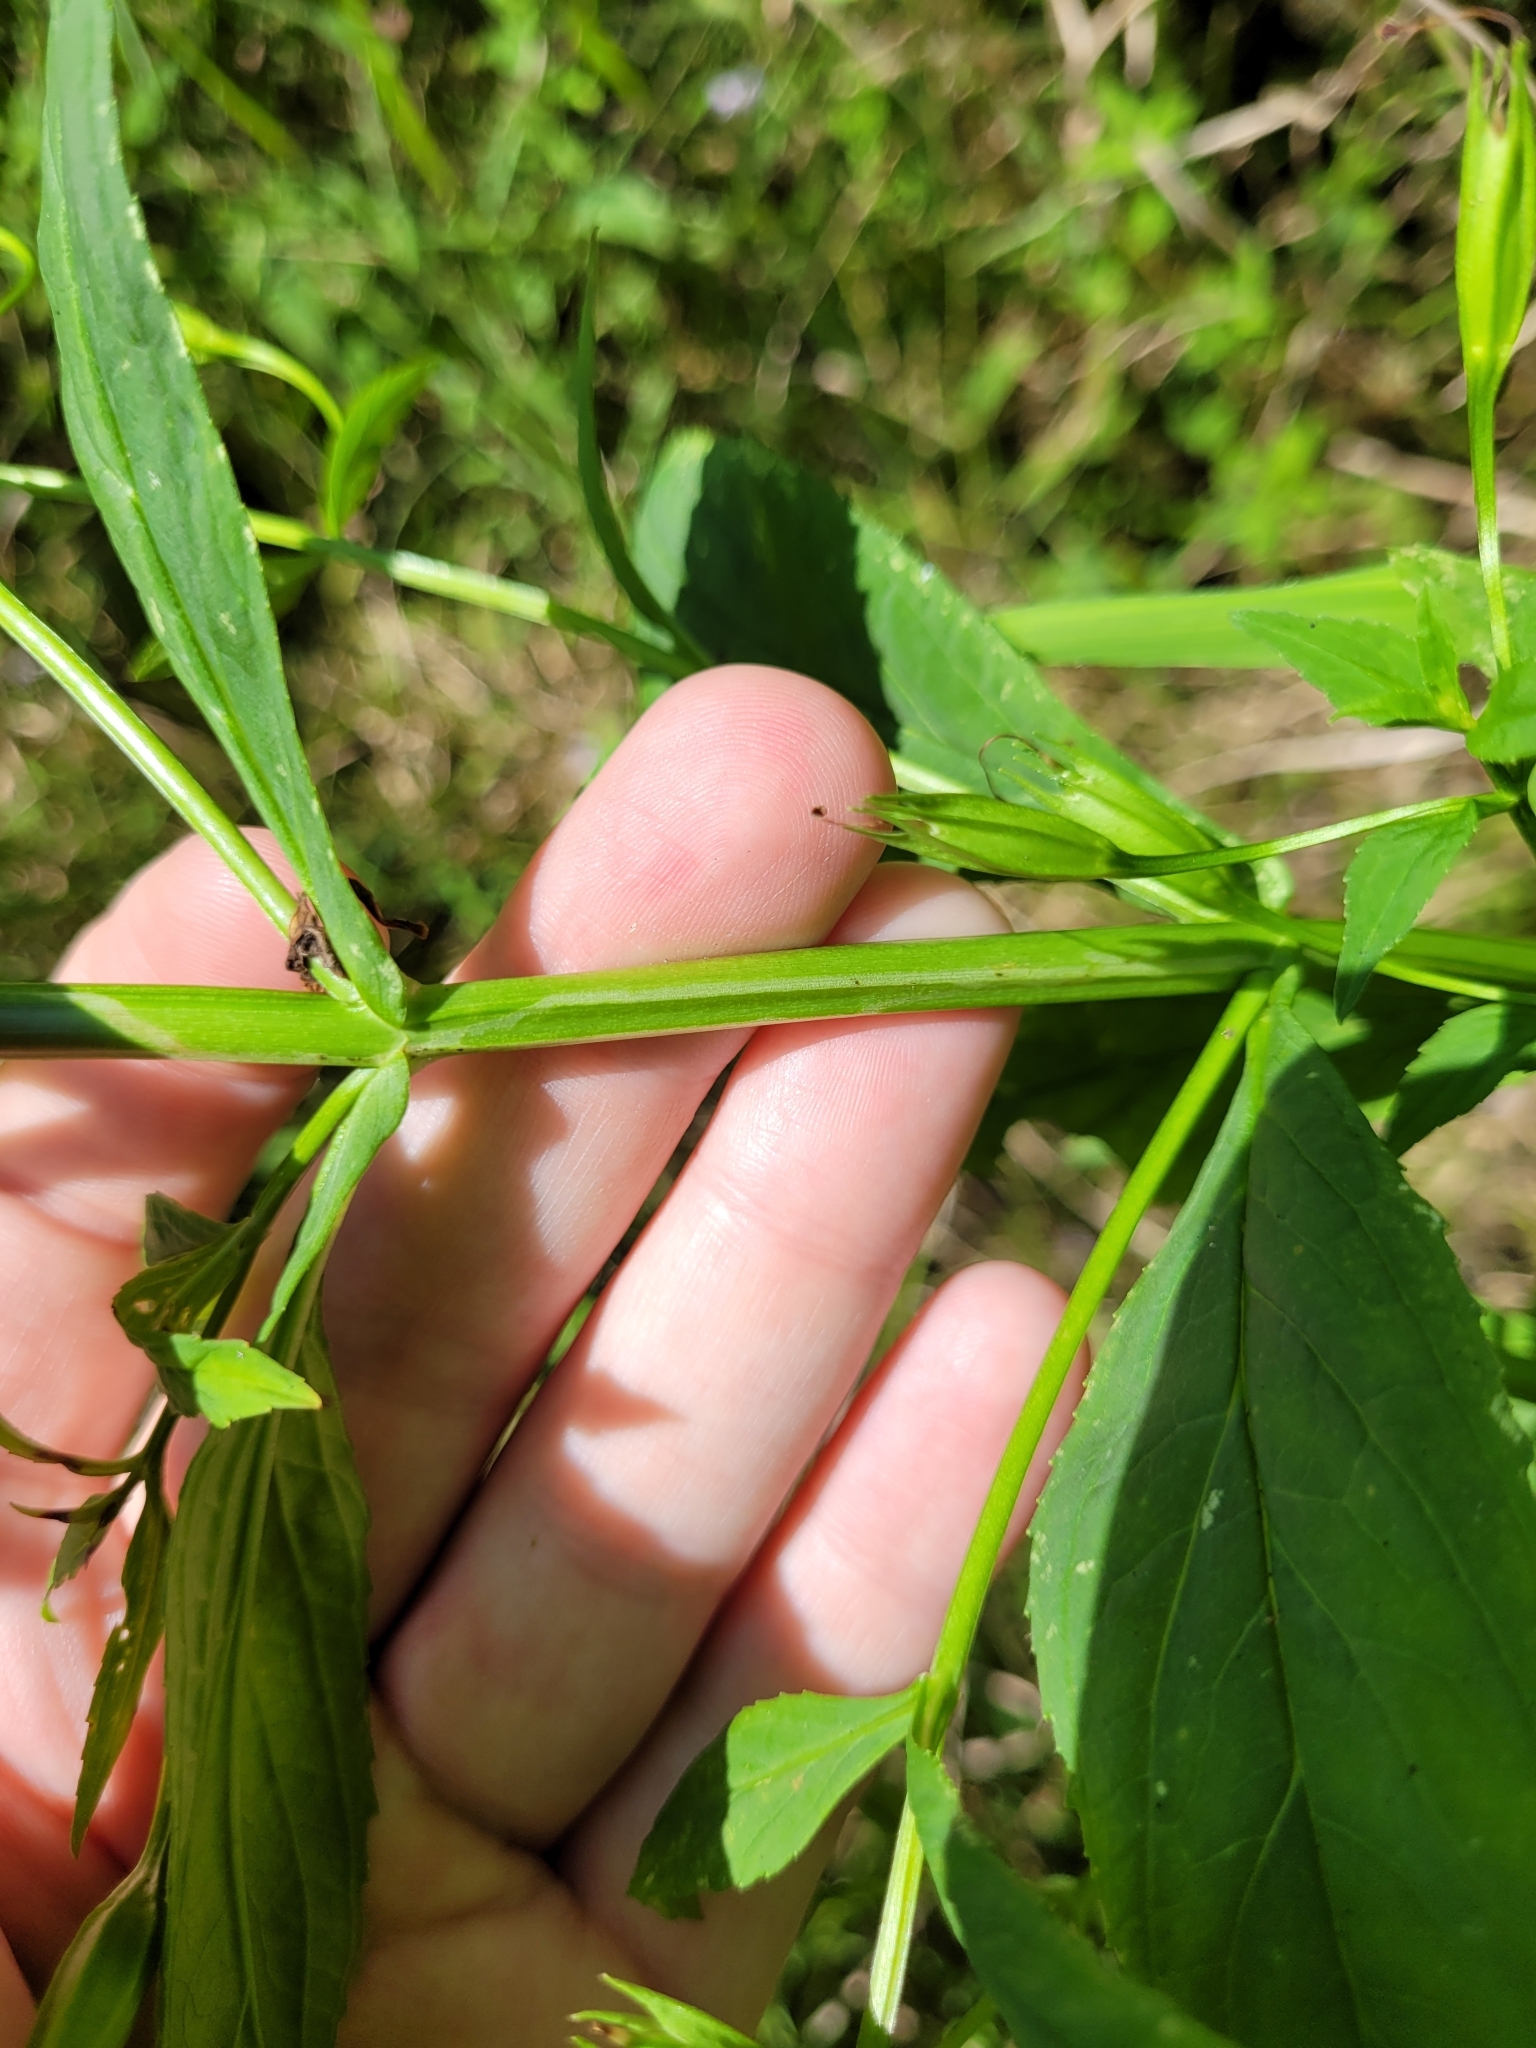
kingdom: Plantae
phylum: Tracheophyta
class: Magnoliopsida
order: Lamiales
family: Phrymaceae
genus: Mimulus
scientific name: Mimulus ringens
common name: Allegheny monkeyflower
